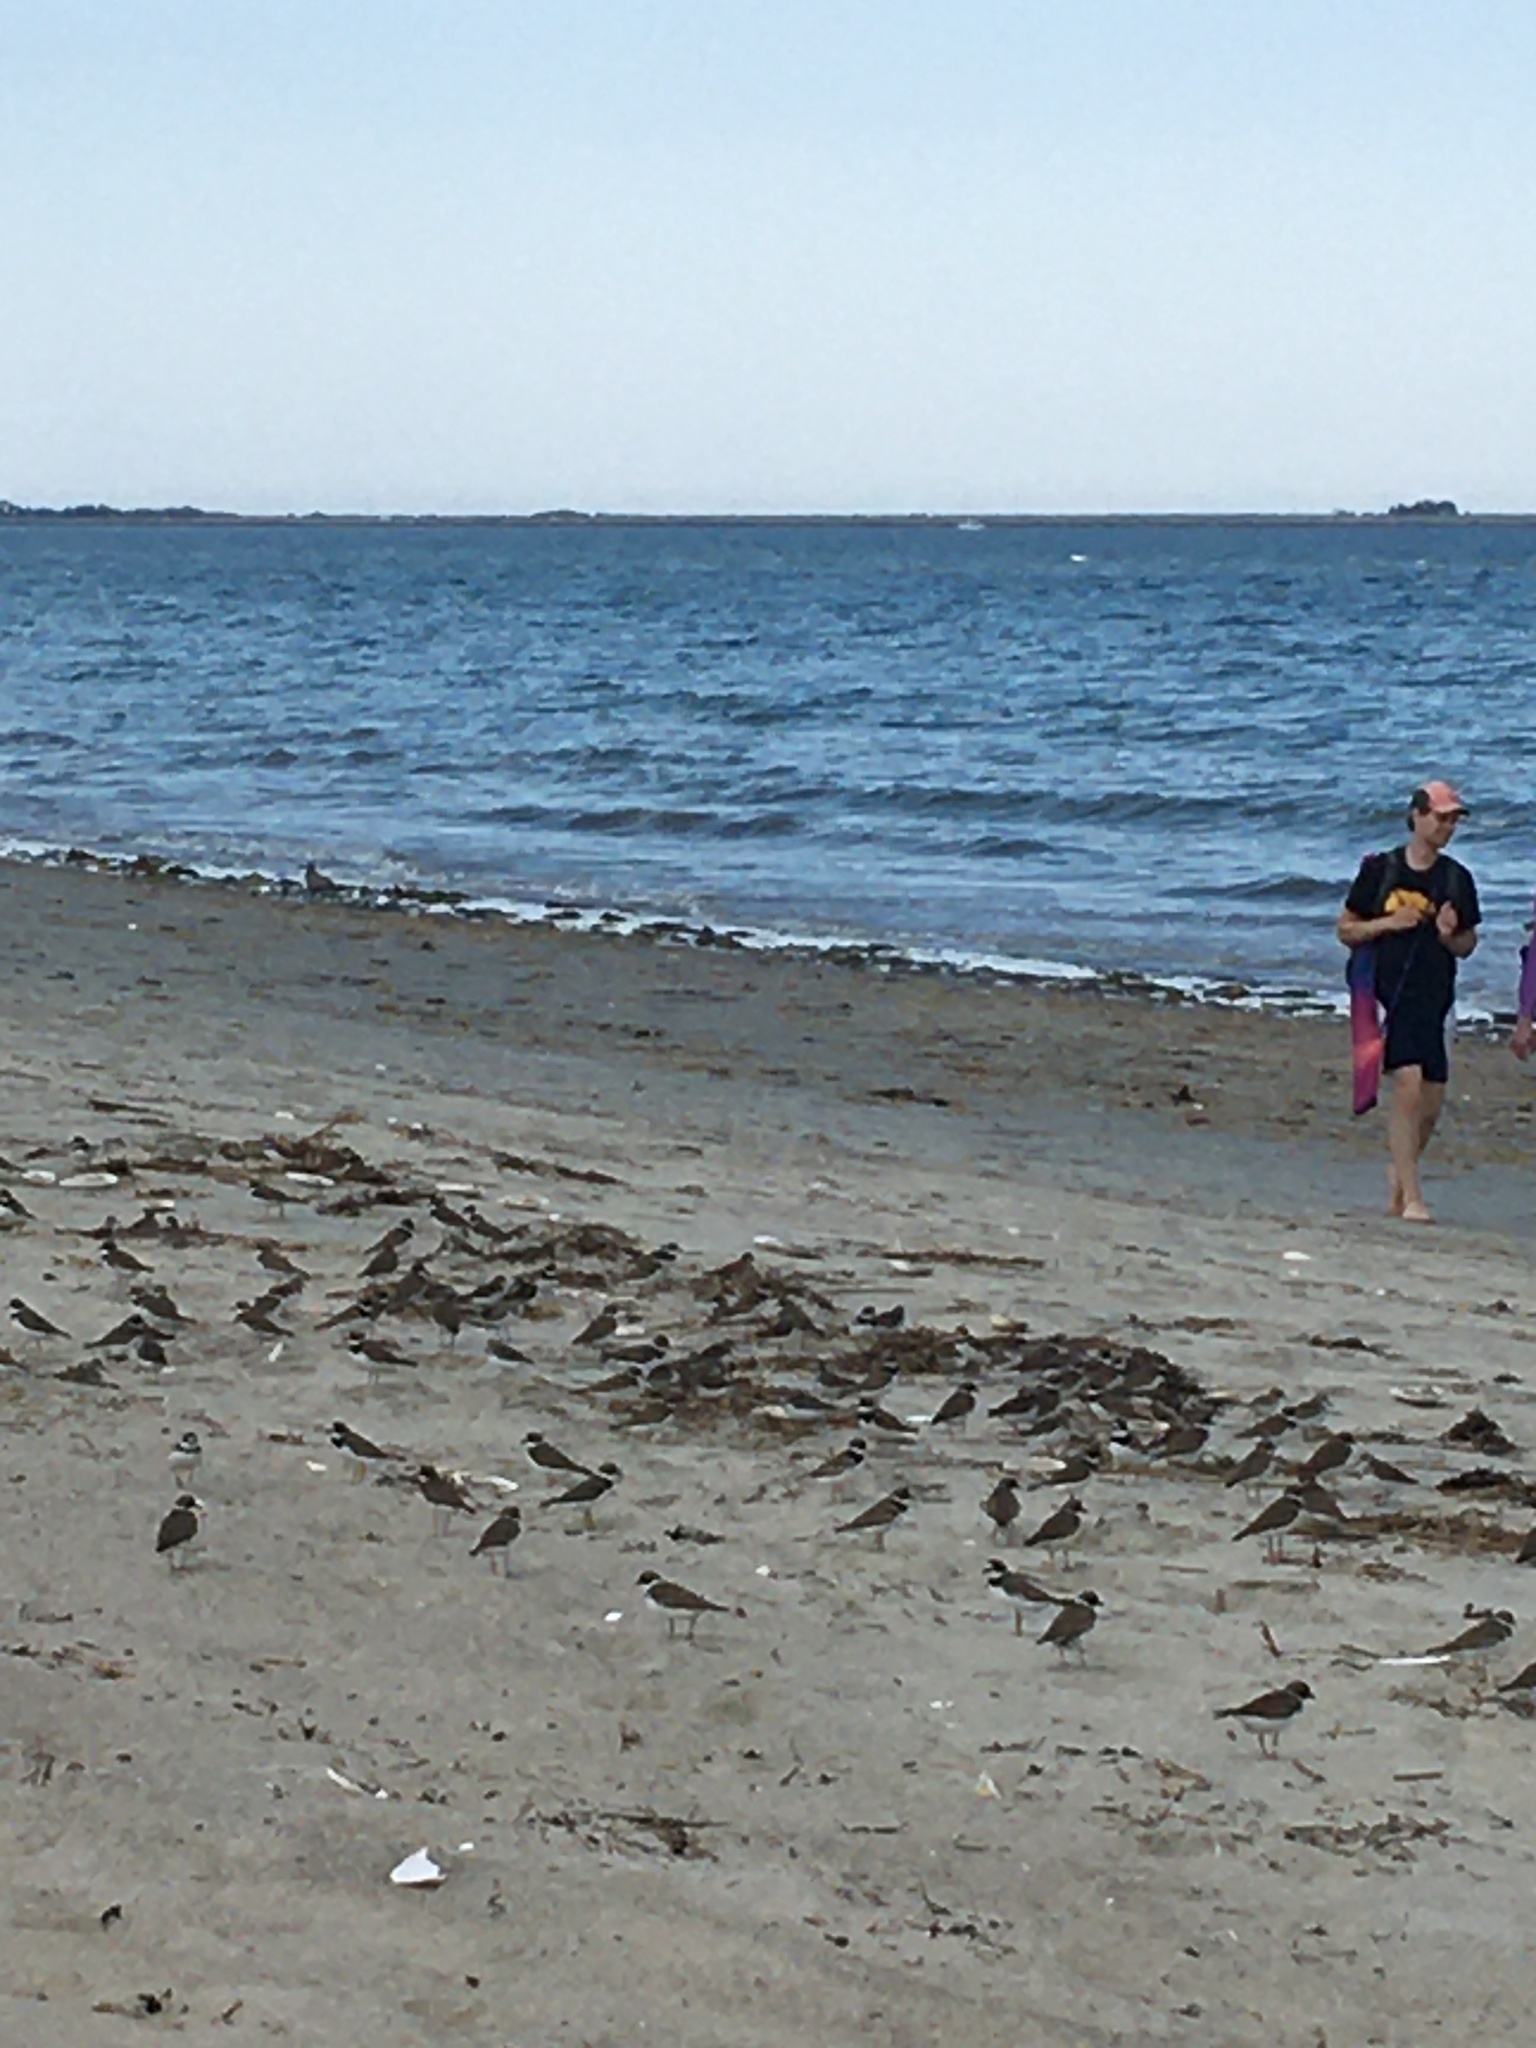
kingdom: Animalia
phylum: Chordata
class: Aves
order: Charadriiformes
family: Charadriidae
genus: Charadrius
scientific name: Charadrius semipalmatus
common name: Semipalmated plover
